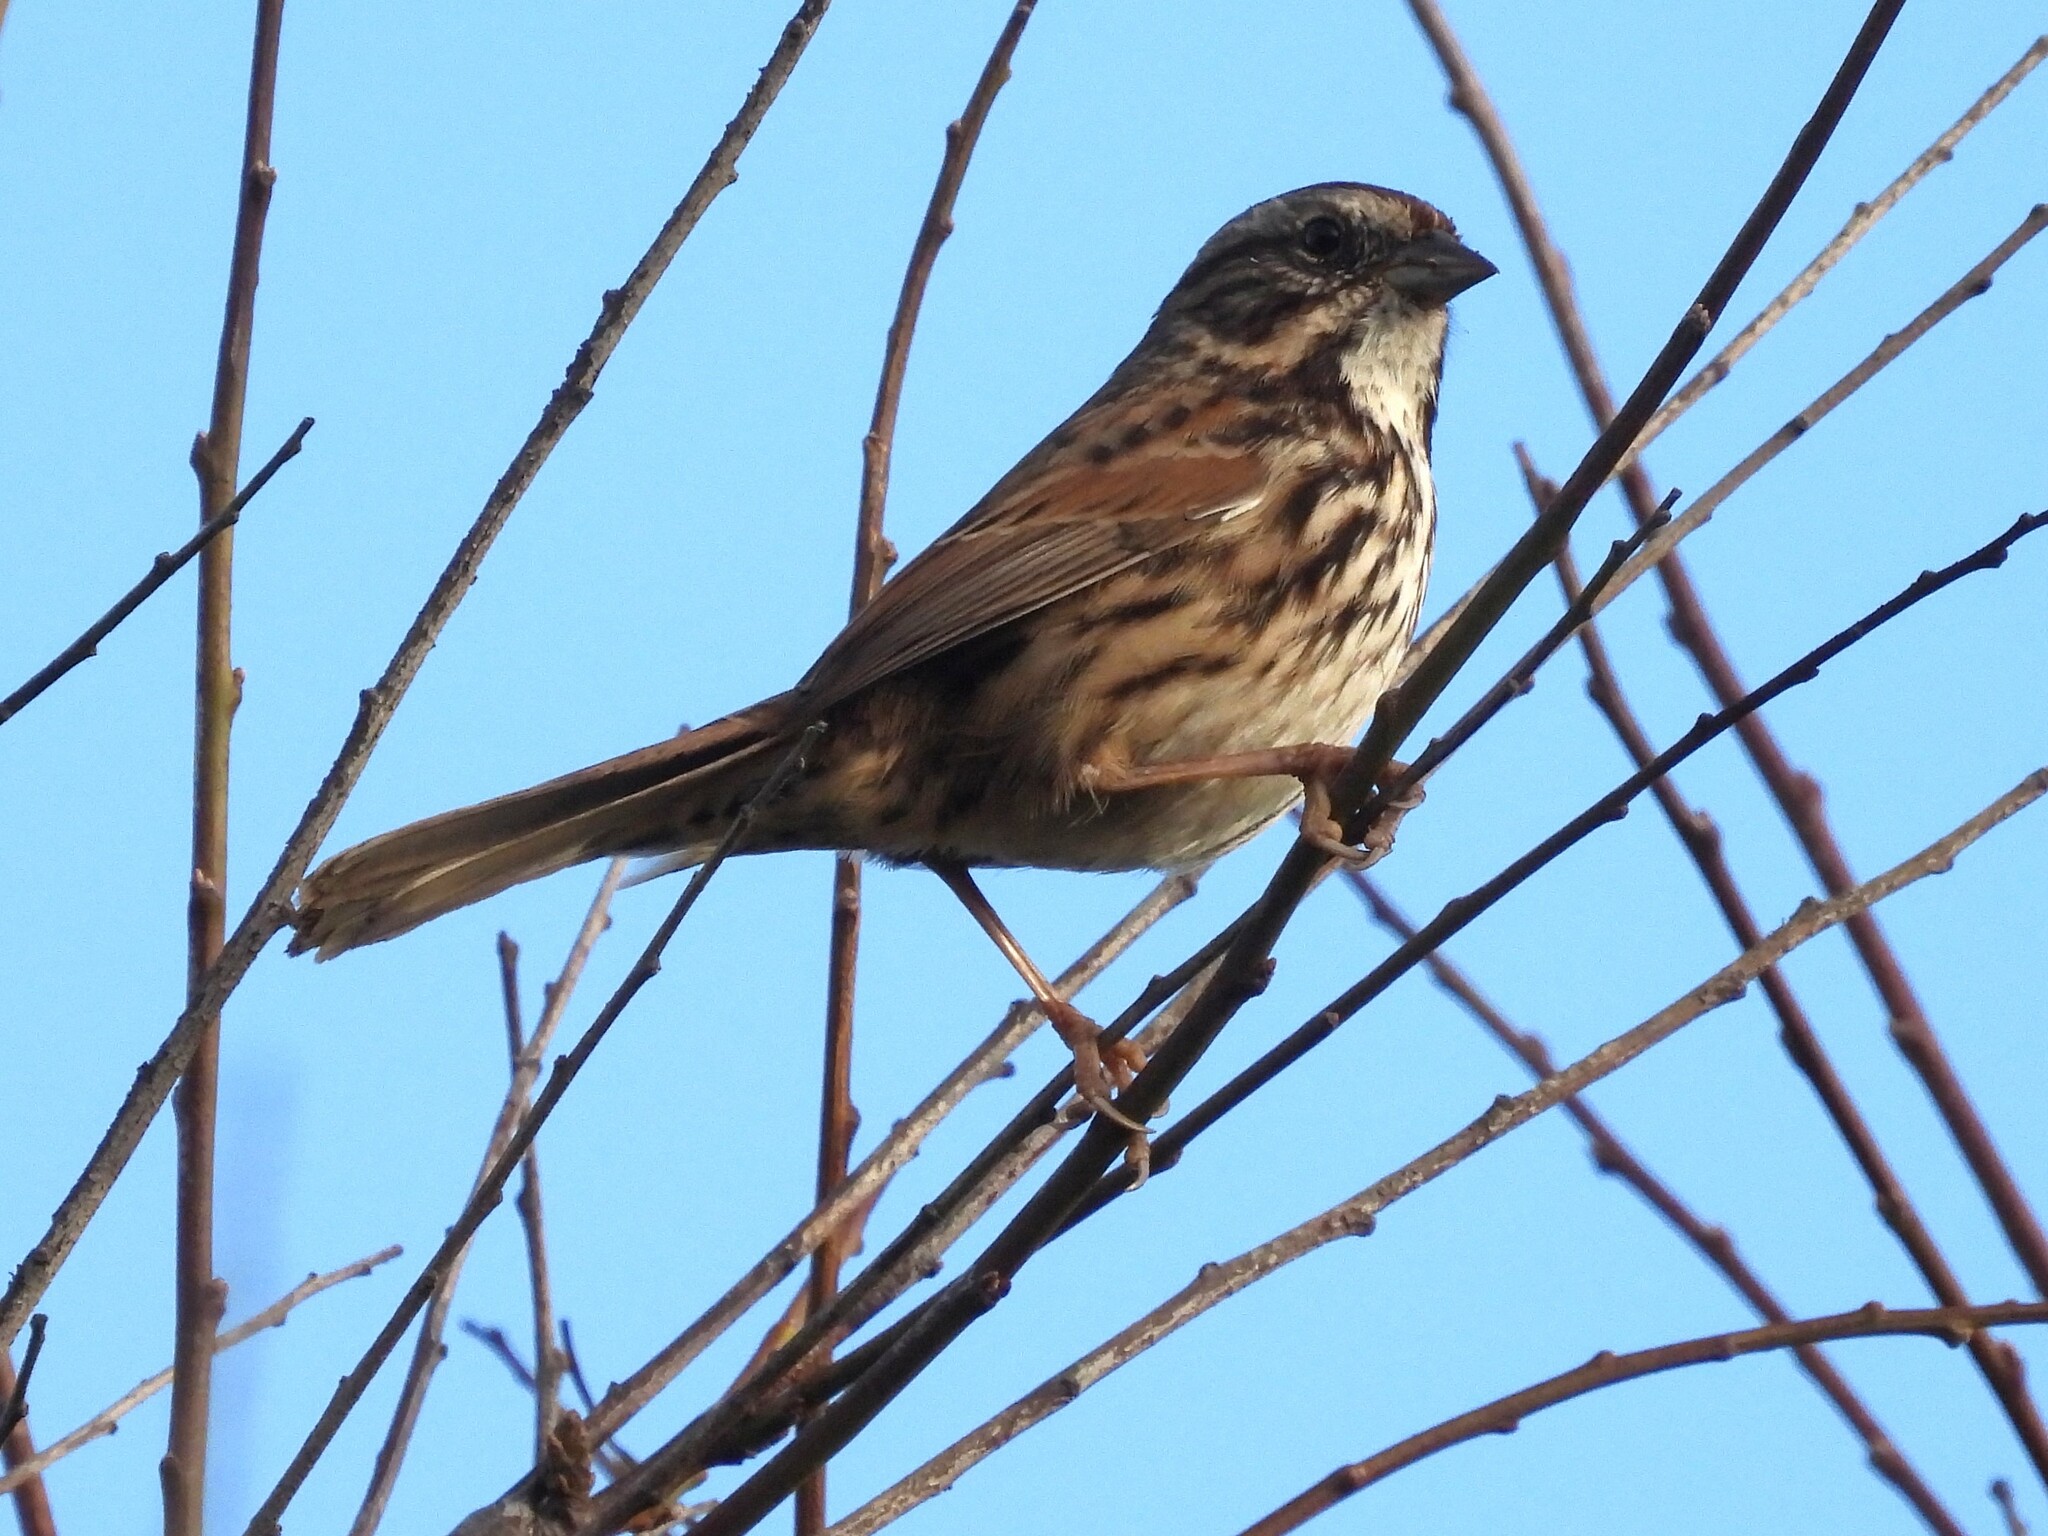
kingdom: Animalia
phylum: Chordata
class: Aves
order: Passeriformes
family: Passerellidae
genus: Melospiza
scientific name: Melospiza melodia
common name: Song sparrow
